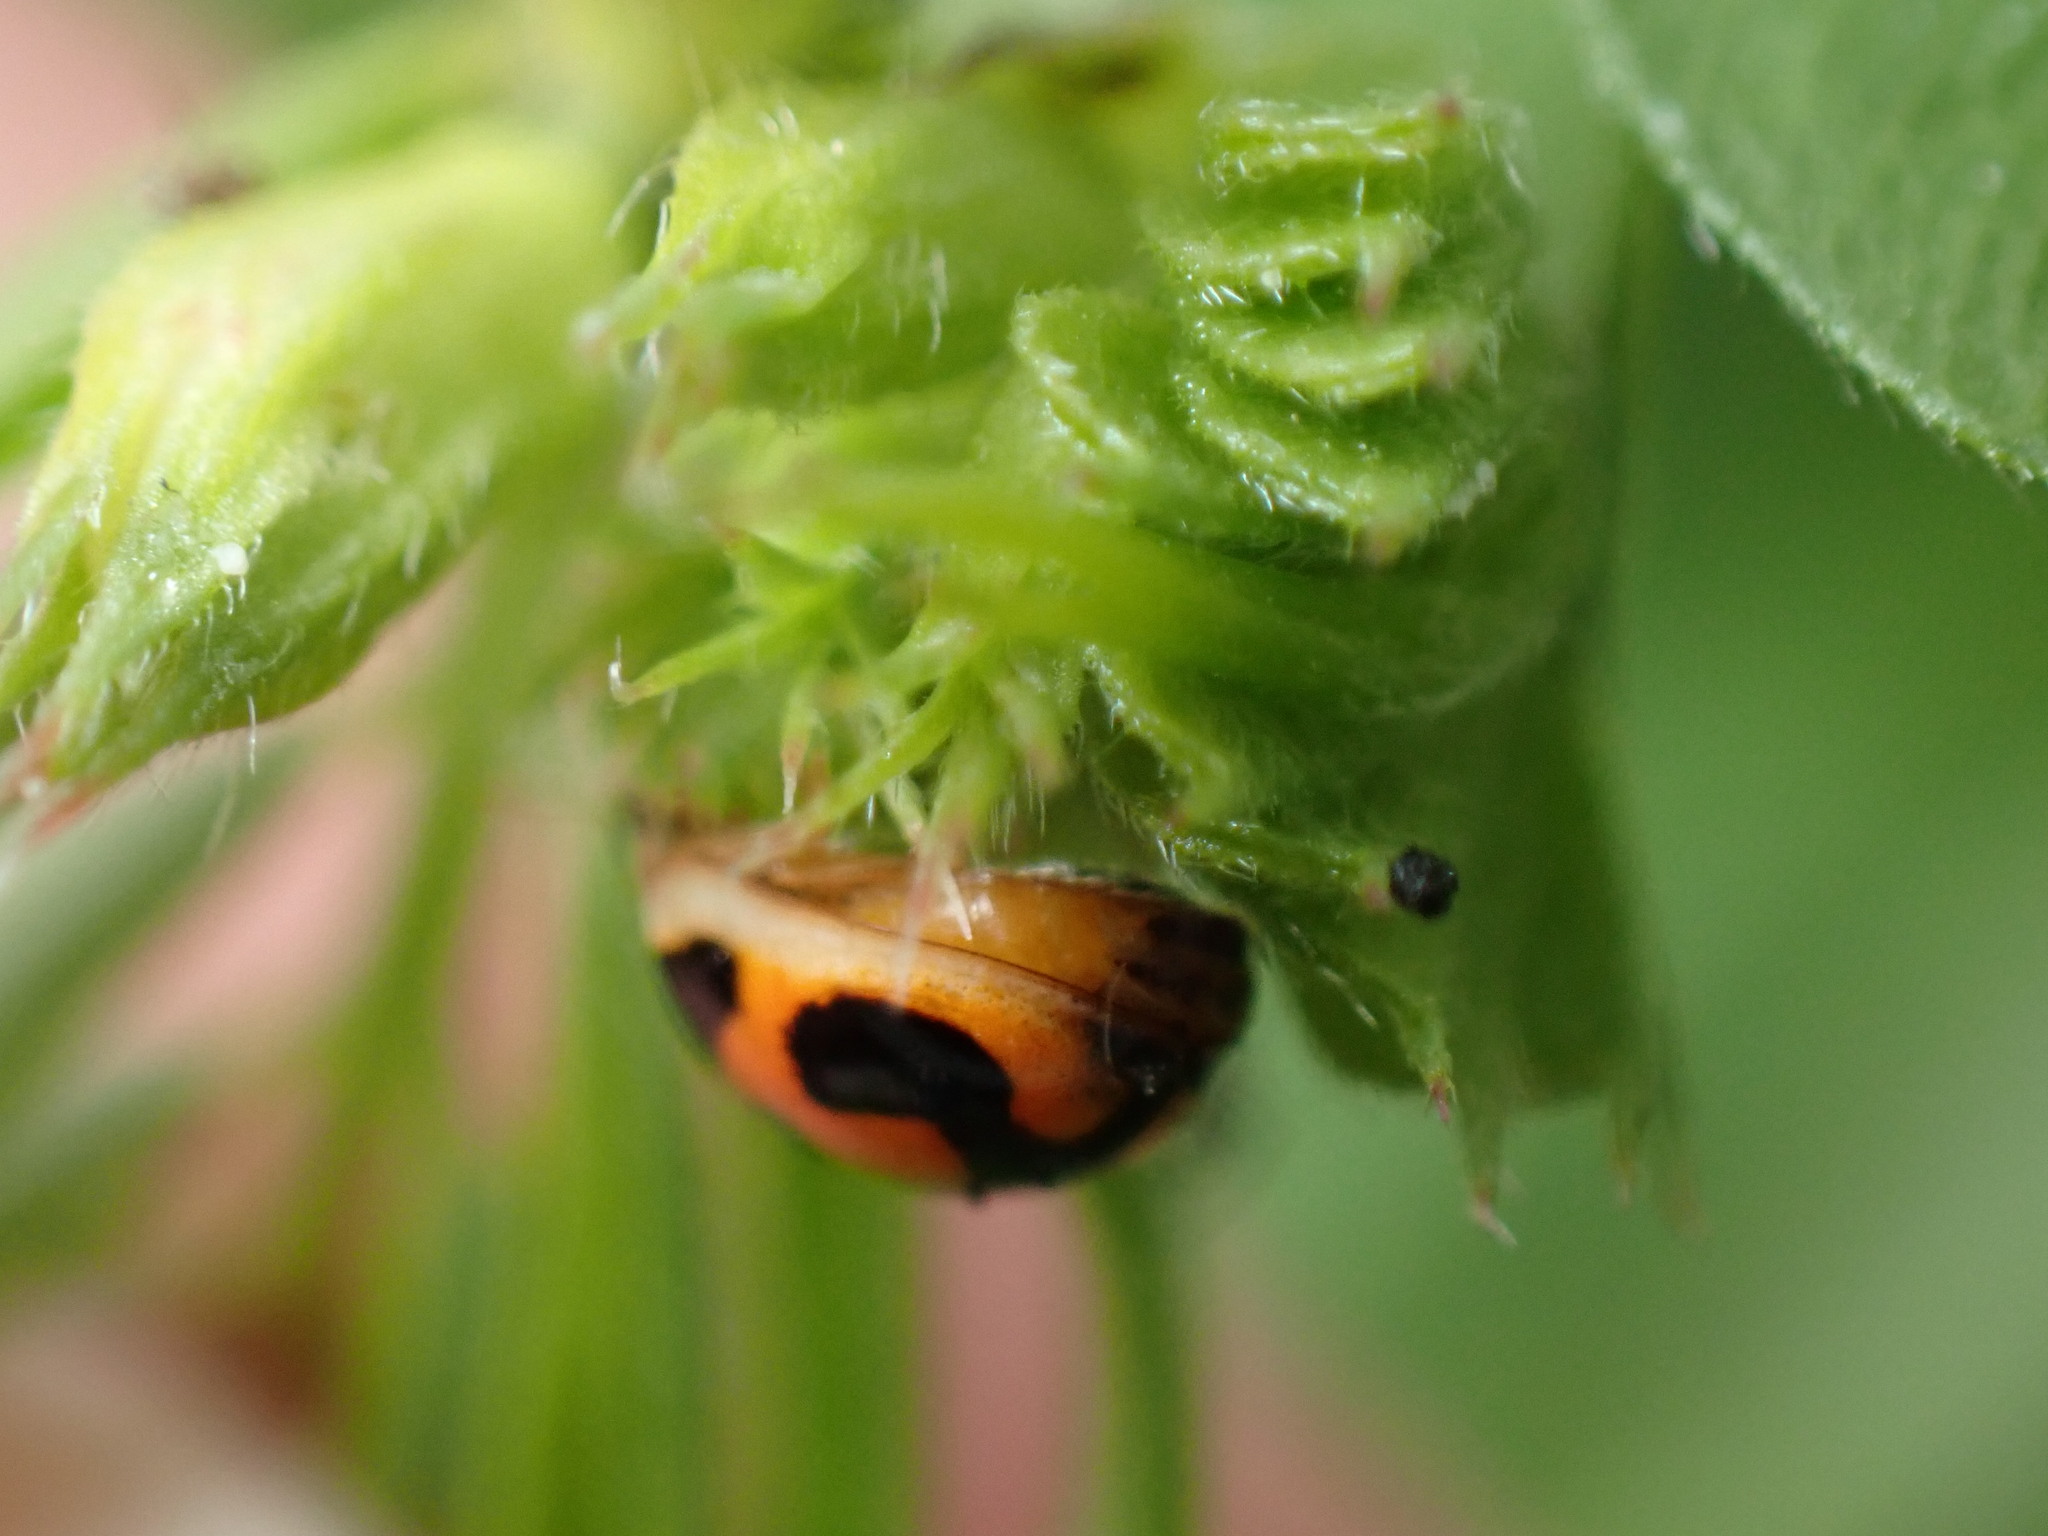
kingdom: Animalia
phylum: Arthropoda
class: Insecta
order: Coleoptera
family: Coccinellidae
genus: Propylea
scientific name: Propylea japonica
